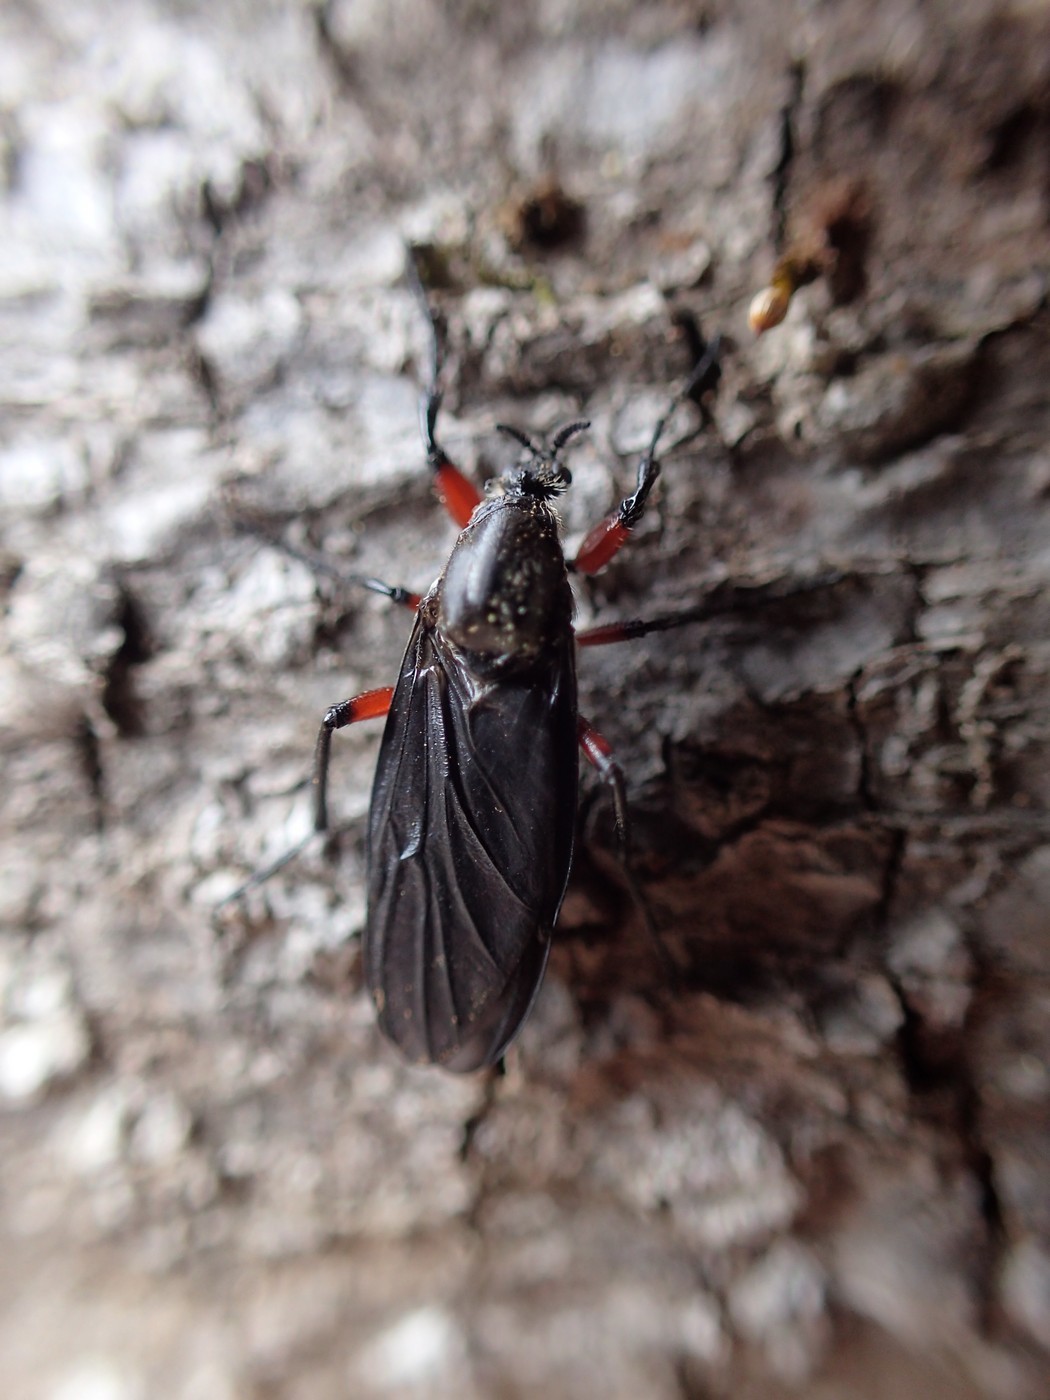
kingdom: Animalia
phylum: Arthropoda
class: Insecta
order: Diptera
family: Bibionidae
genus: Bibio
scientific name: Bibio femoratus
